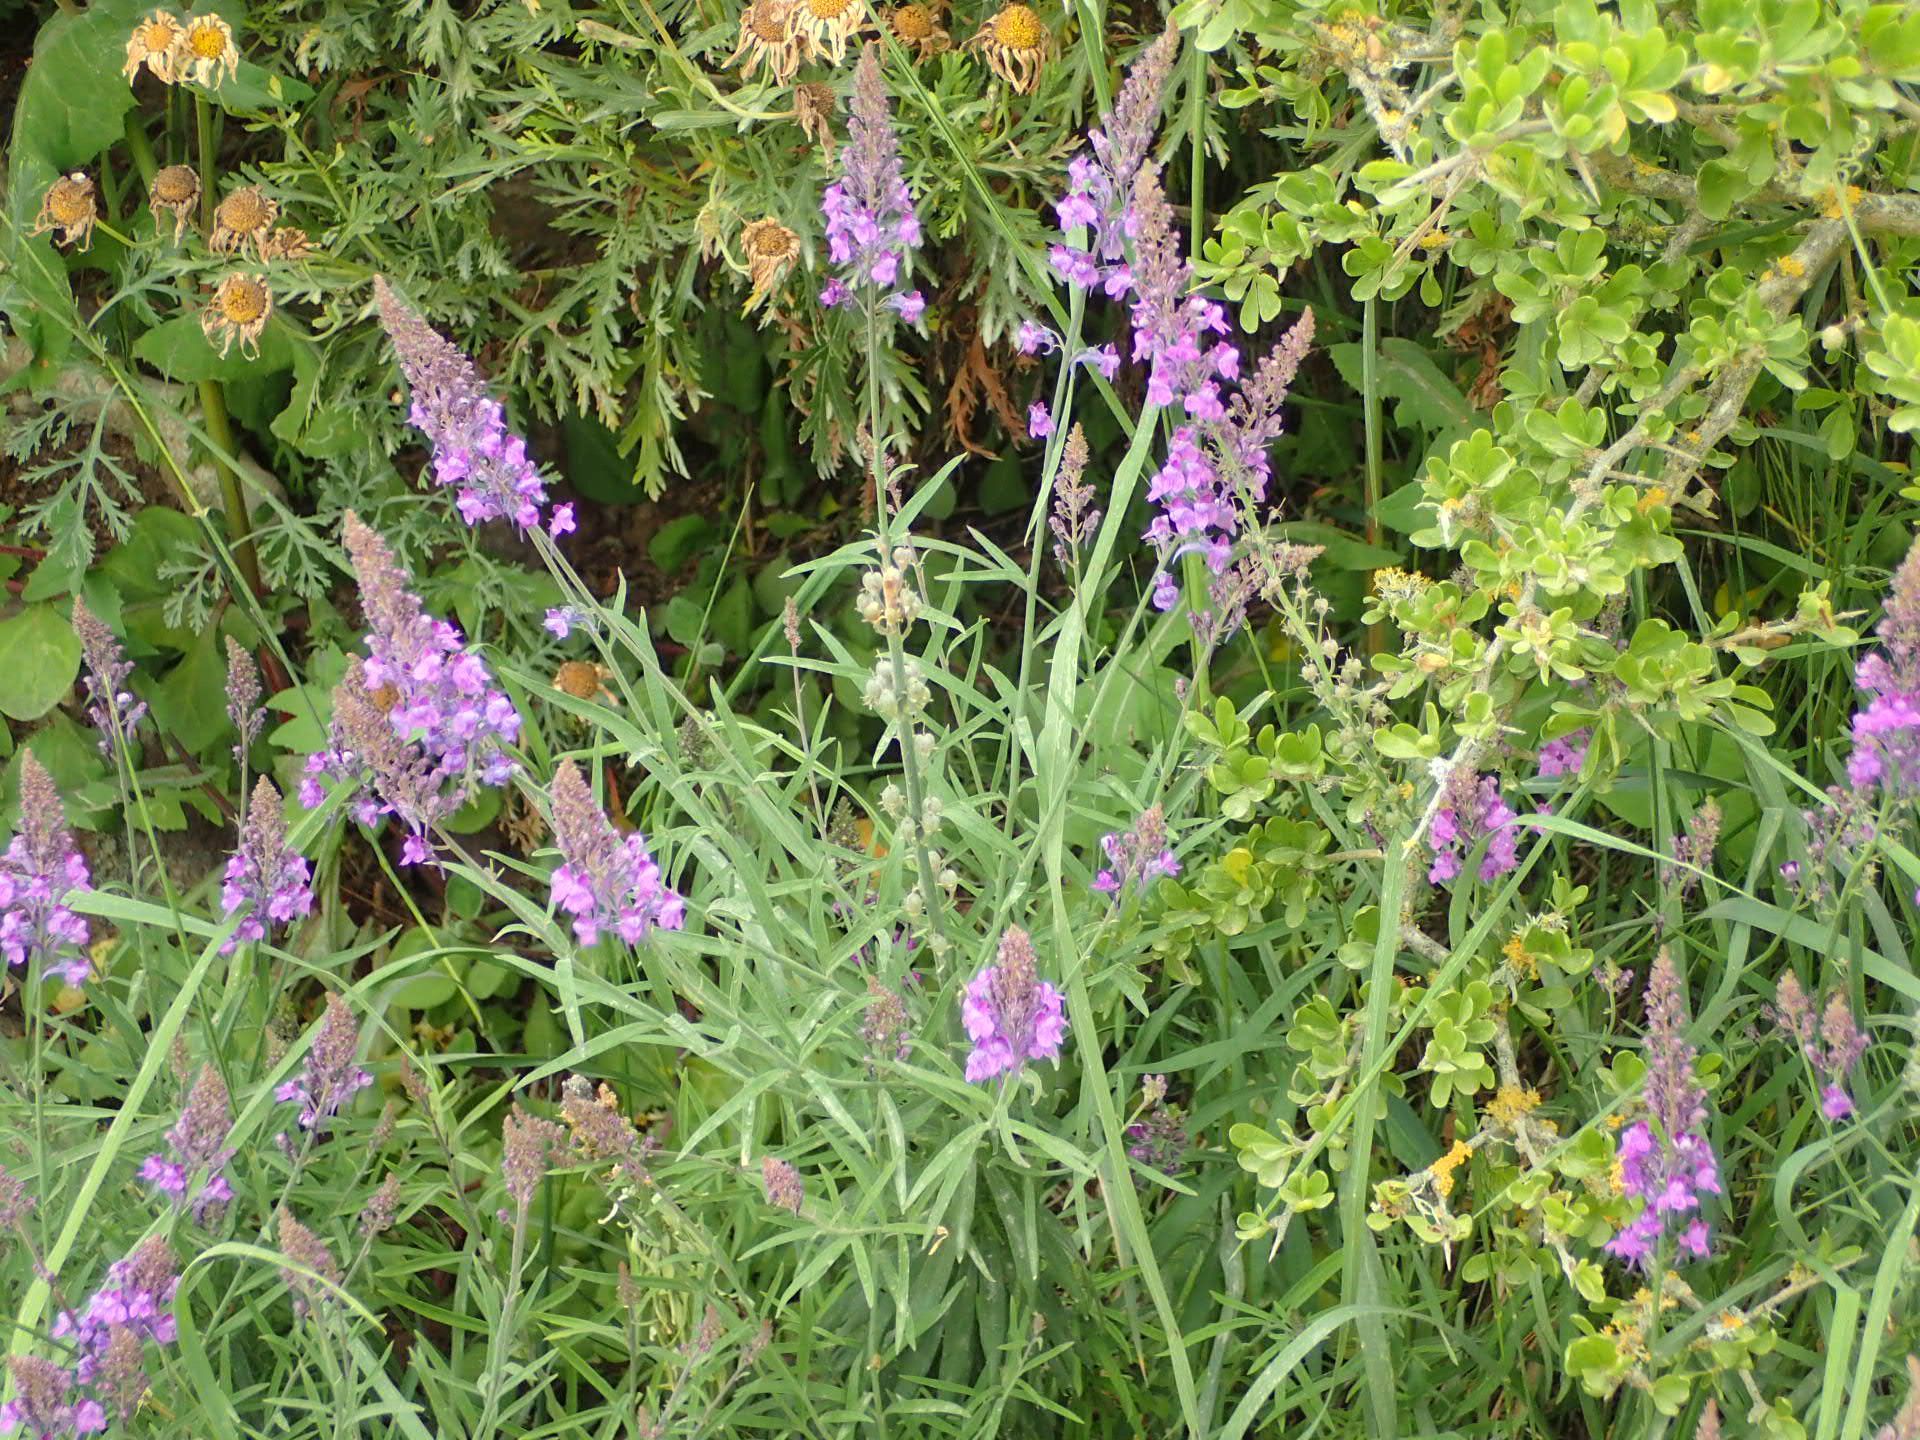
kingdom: Plantae
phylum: Tracheophyta
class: Magnoliopsida
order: Lamiales
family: Plantaginaceae
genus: Linaria
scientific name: Linaria purpurea
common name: Purple toadflax
